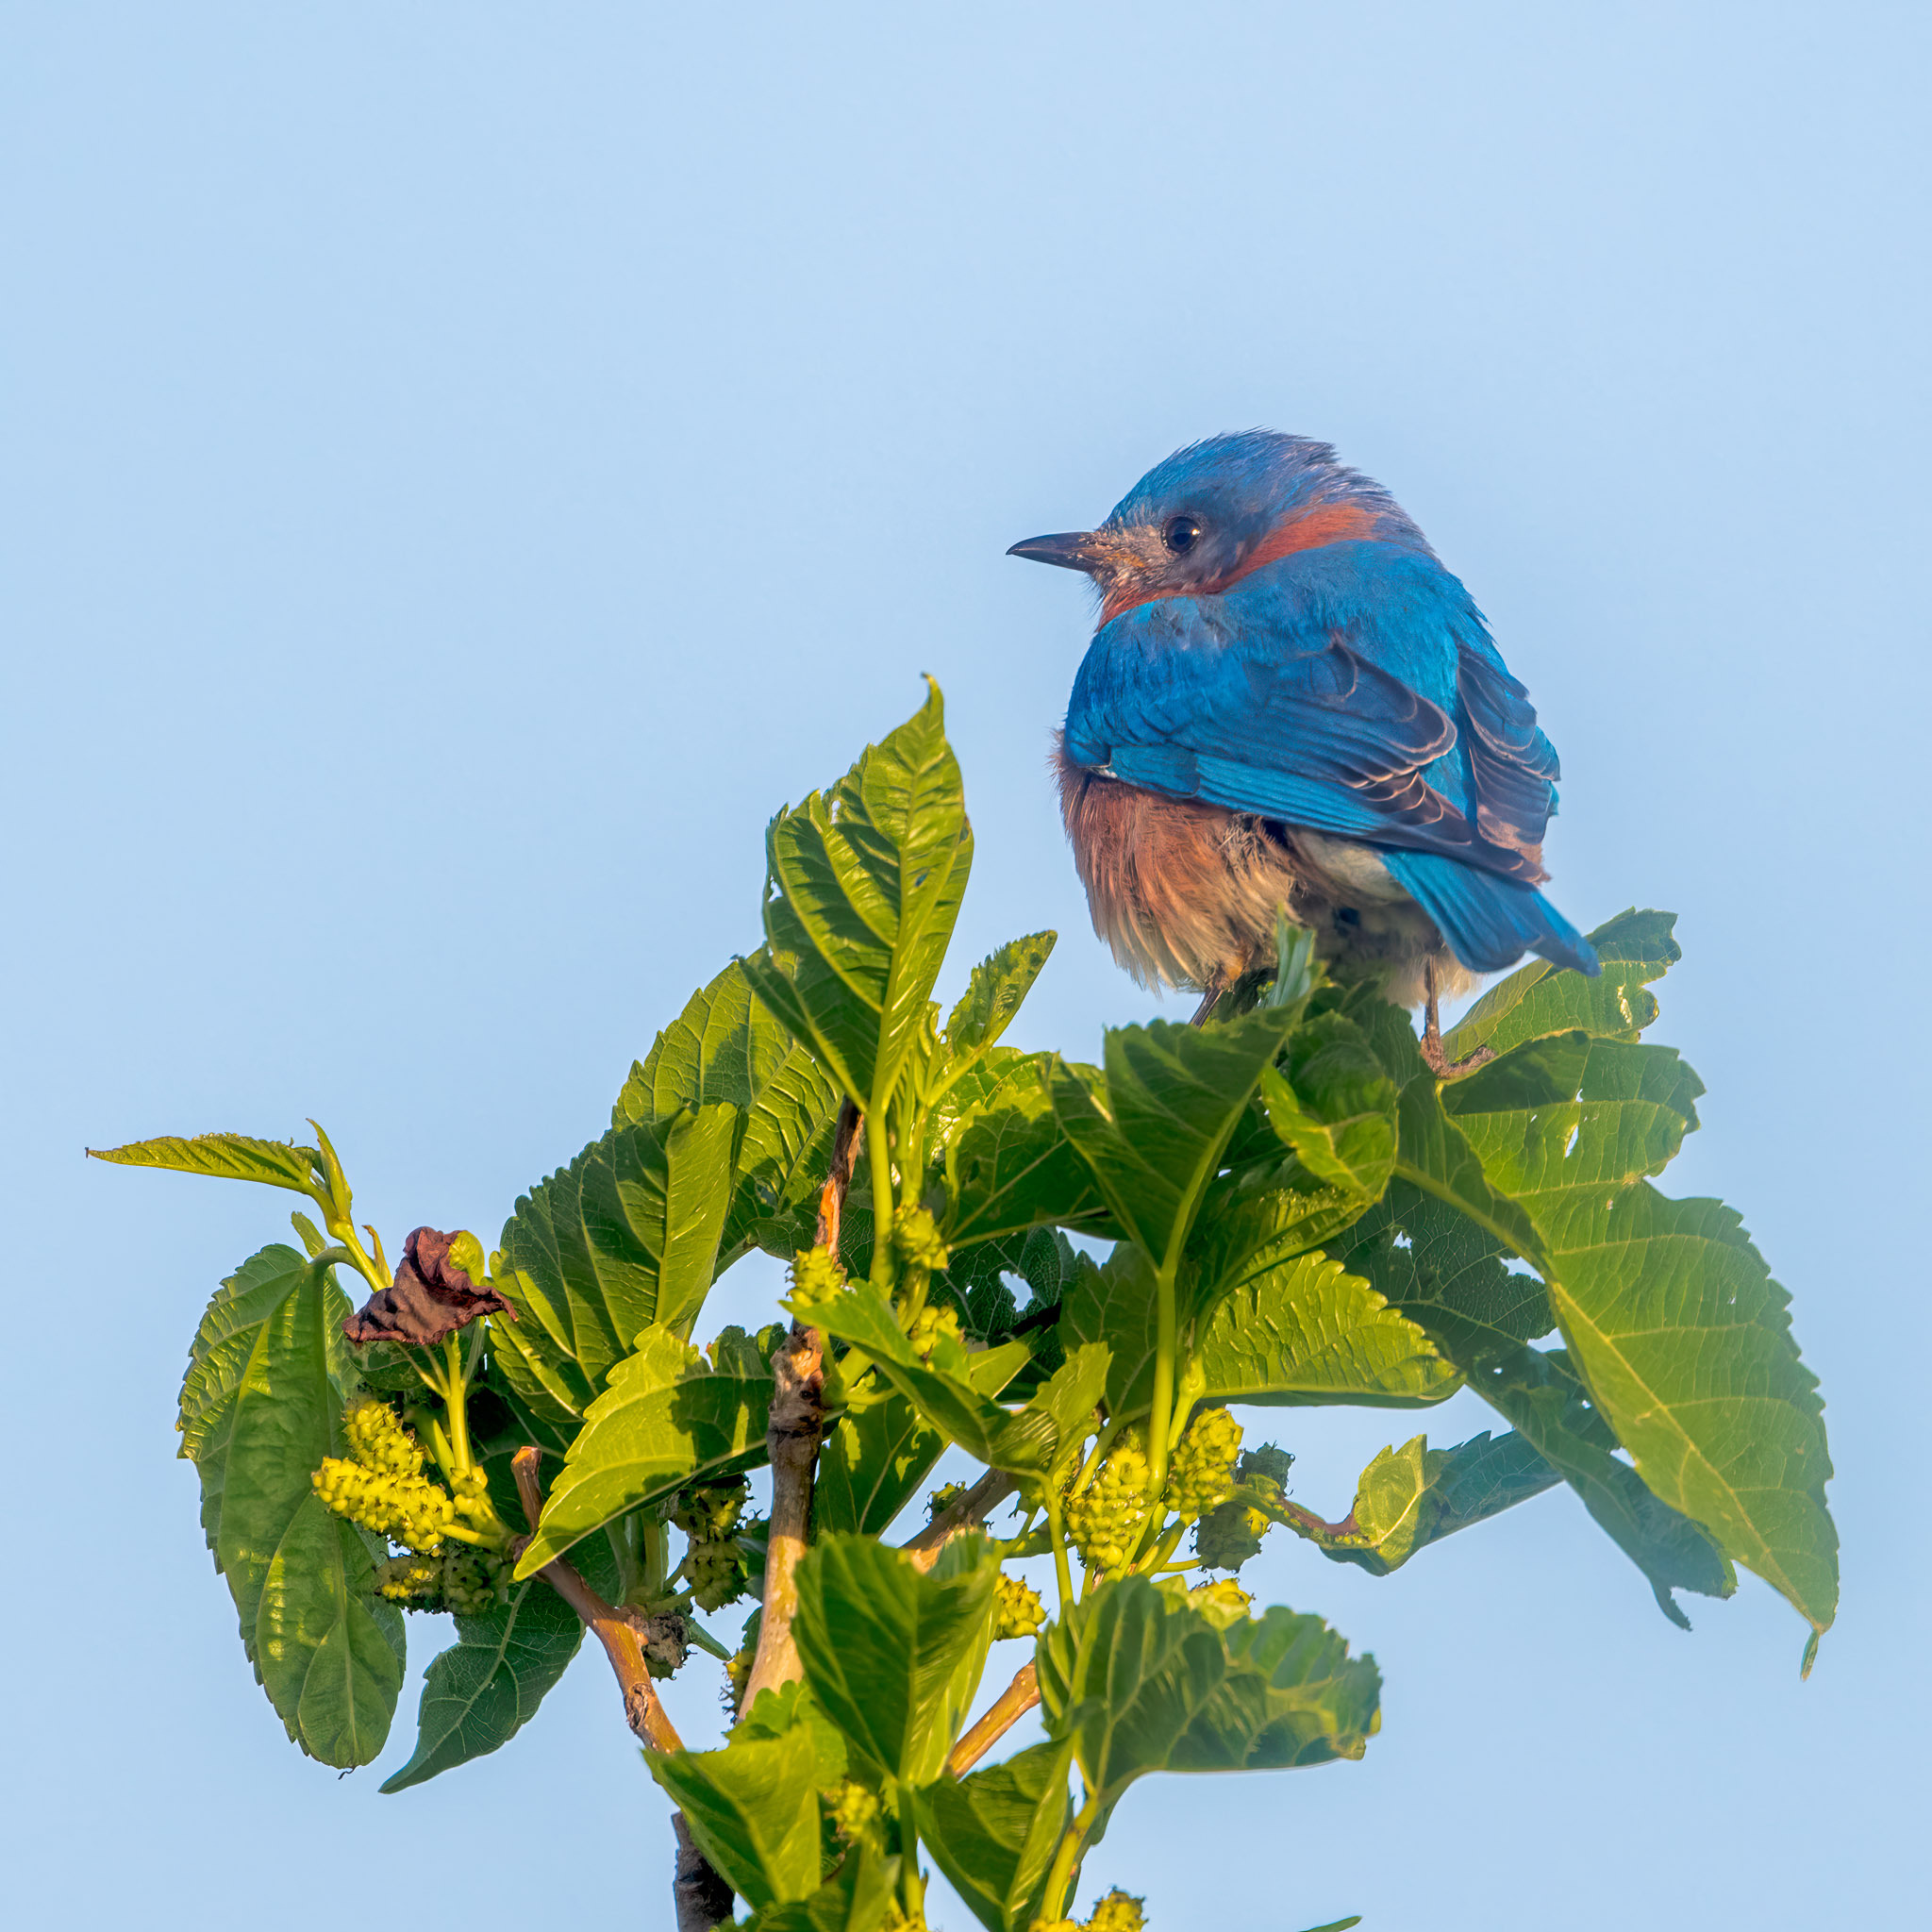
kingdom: Animalia
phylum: Chordata
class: Aves
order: Passeriformes
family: Turdidae
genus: Sialia
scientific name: Sialia sialis
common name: Eastern bluebird
